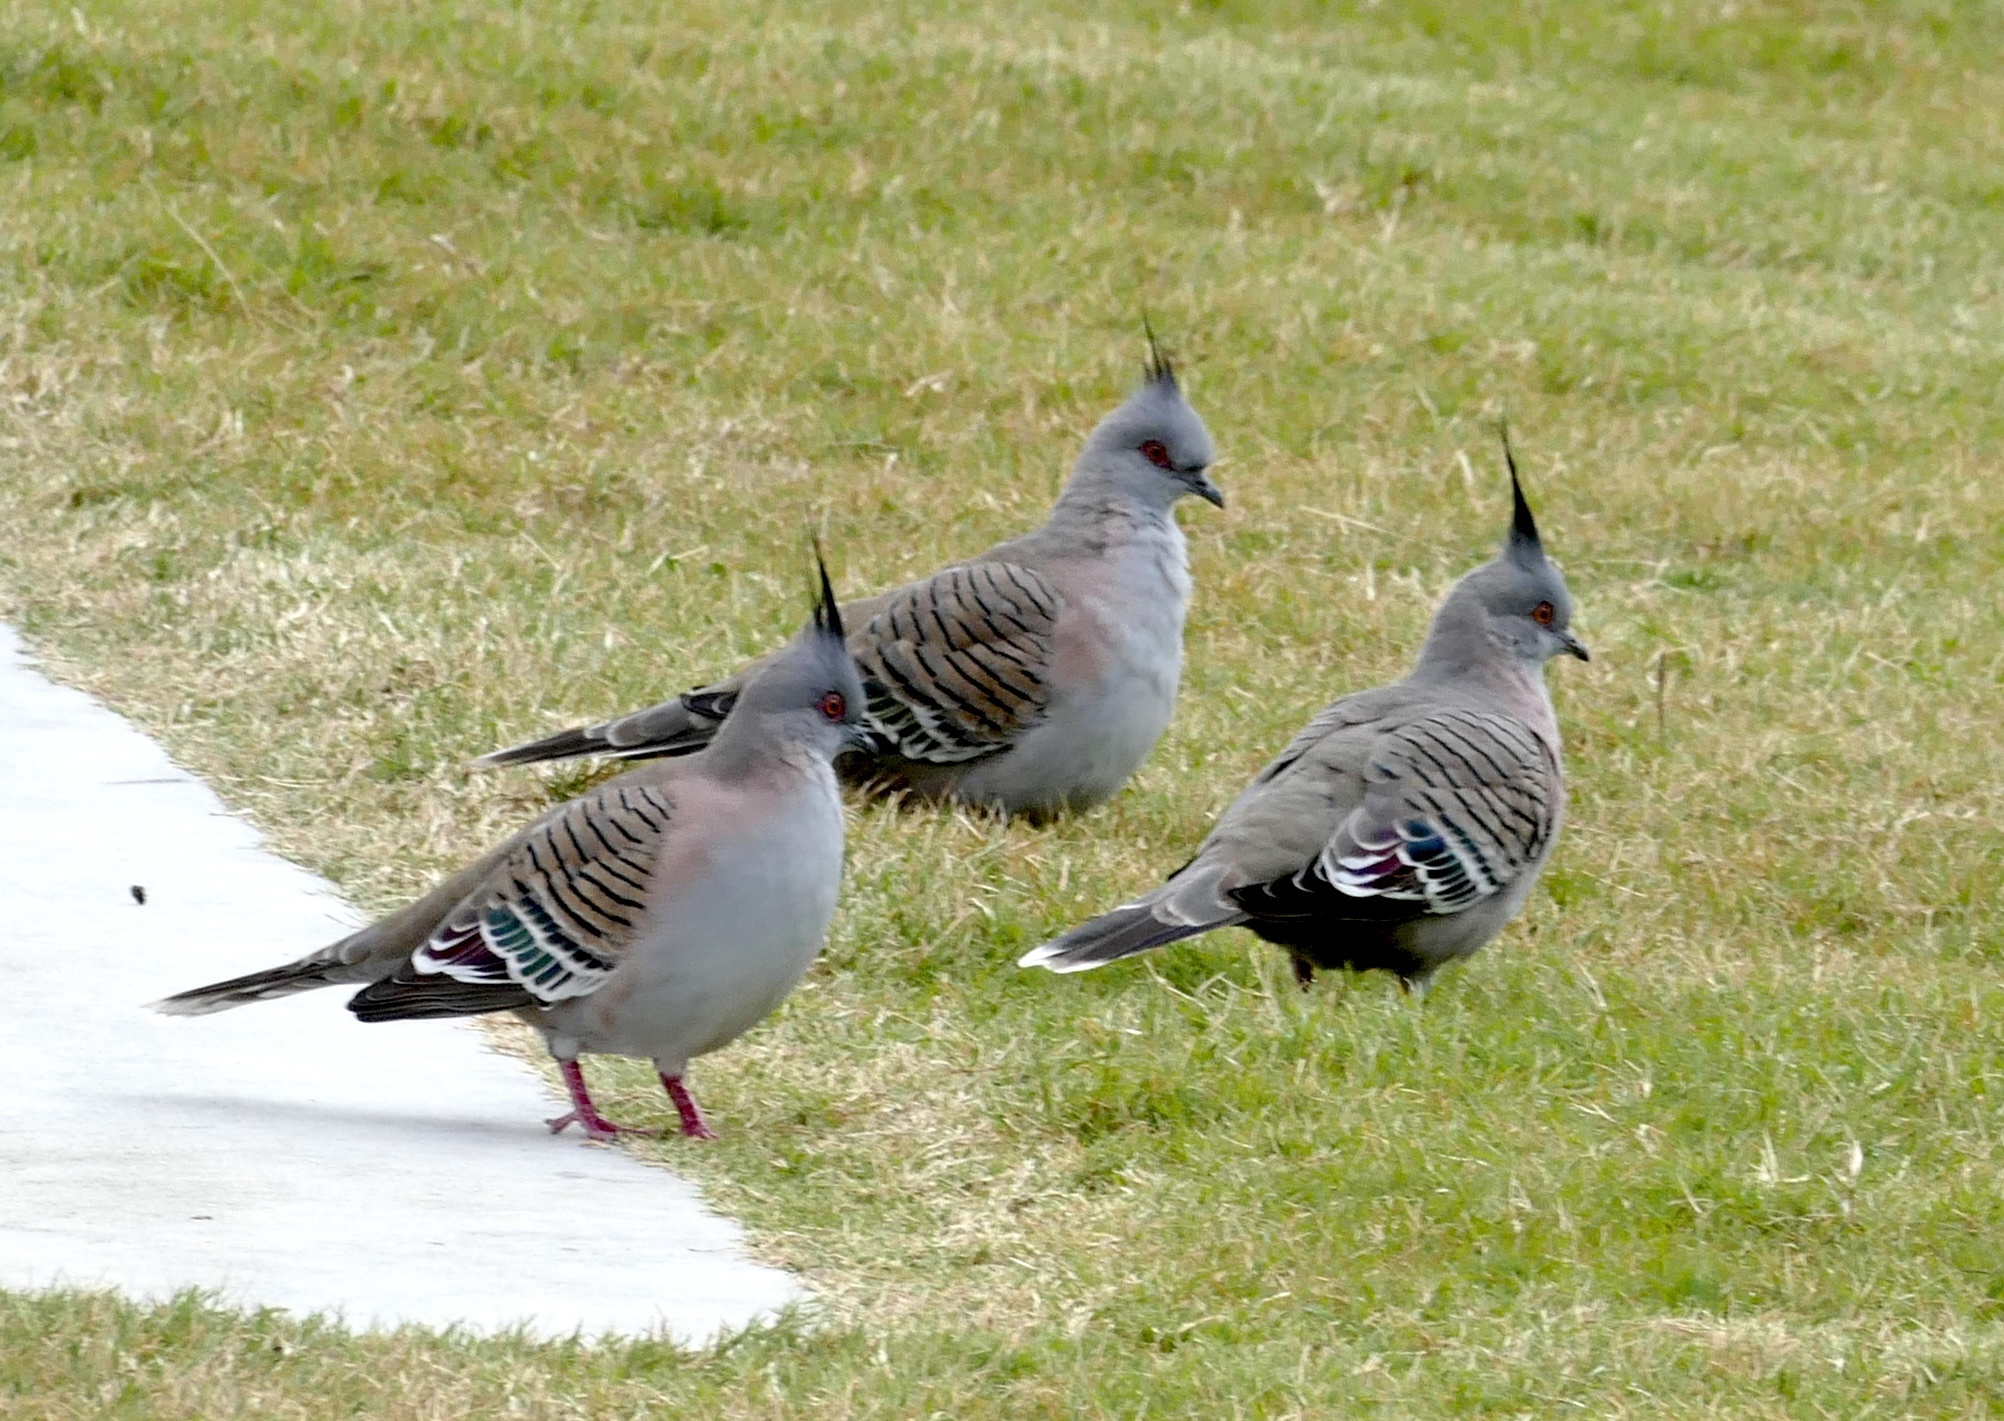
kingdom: Animalia
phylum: Chordata
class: Aves
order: Columbiformes
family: Columbidae
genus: Ocyphaps
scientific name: Ocyphaps lophotes
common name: Crested pigeon
